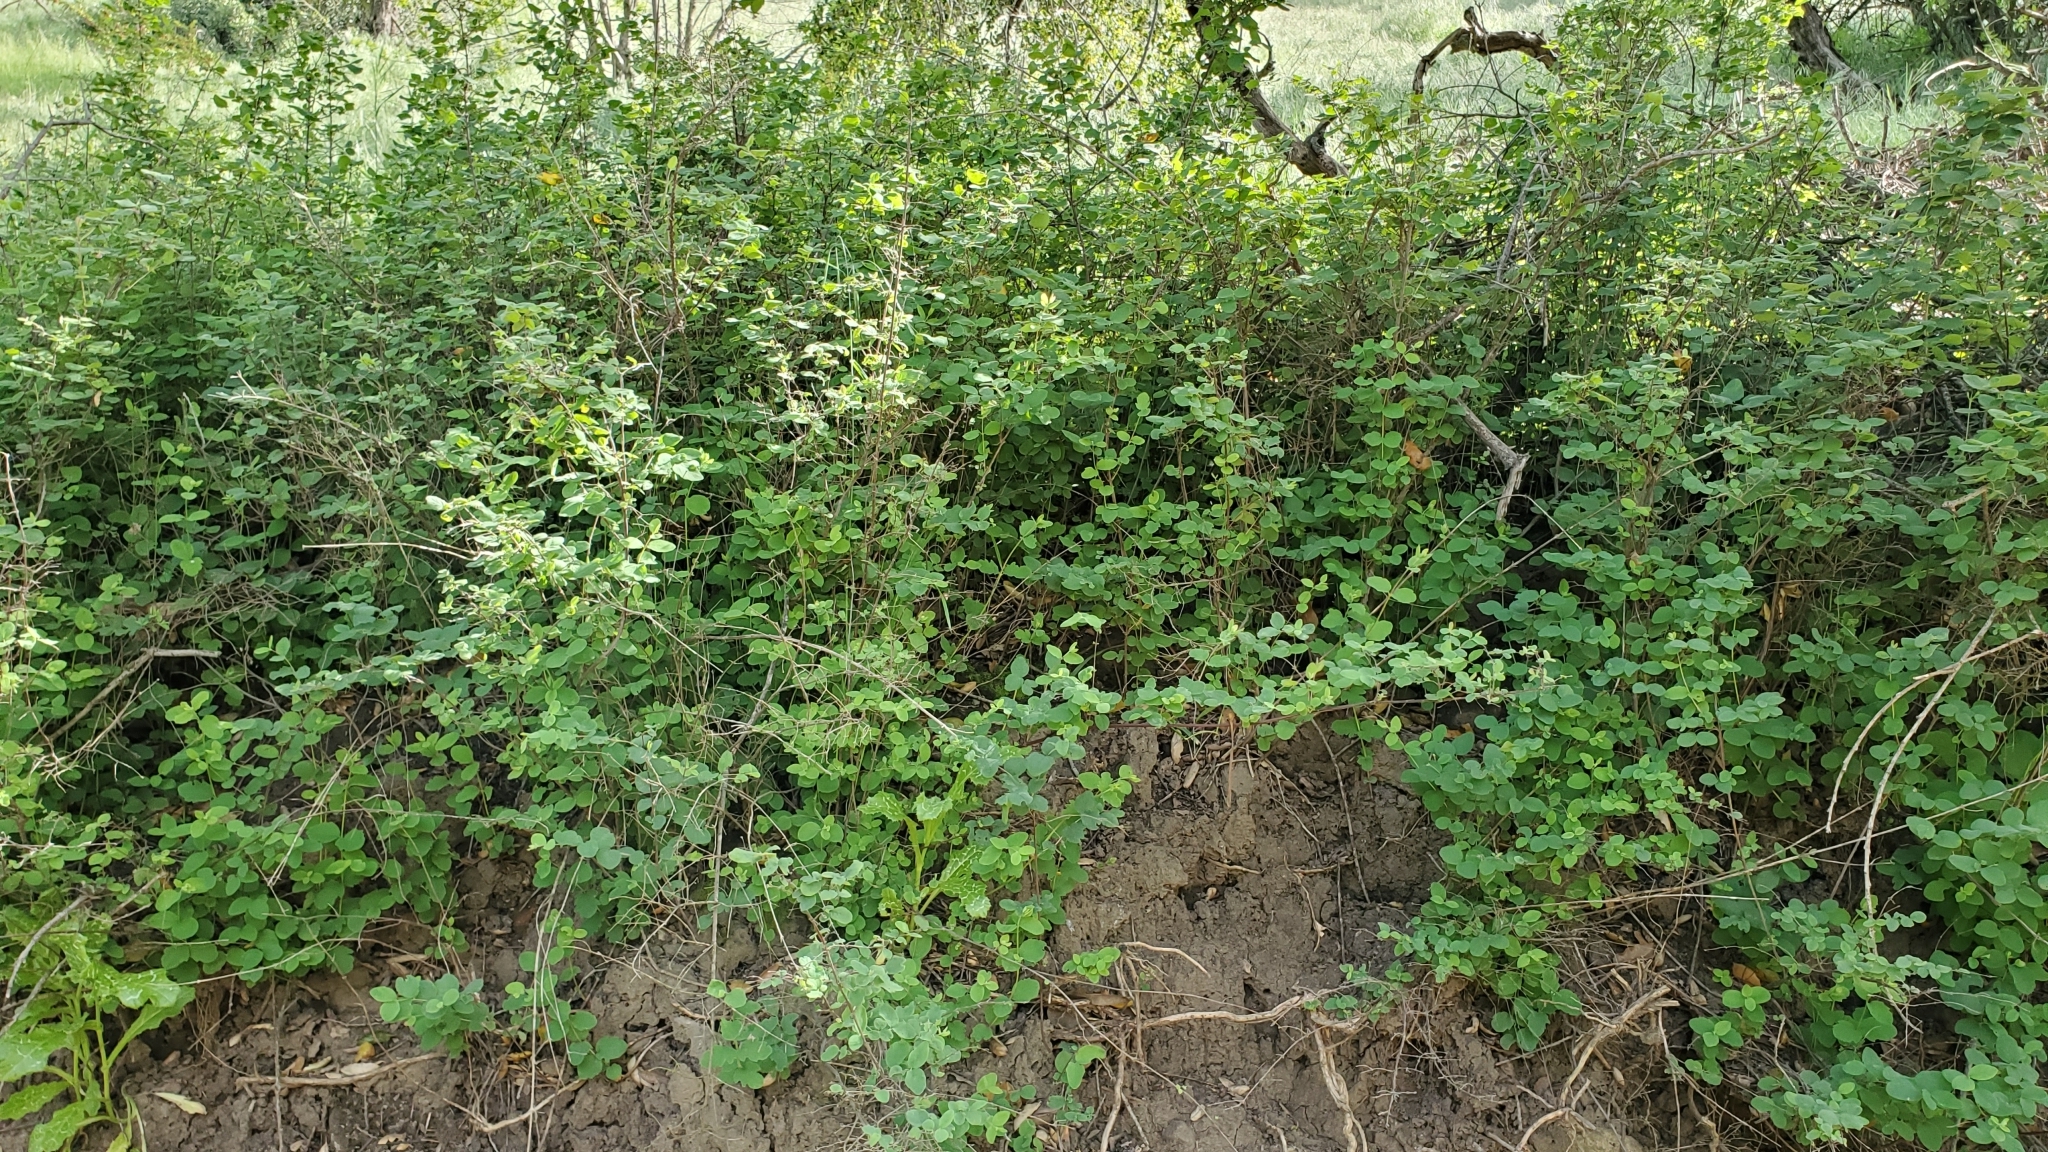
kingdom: Plantae
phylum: Tracheophyta
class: Magnoliopsida
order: Dipsacales
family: Caprifoliaceae
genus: Symphoricarpos
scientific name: Symphoricarpos mollis
